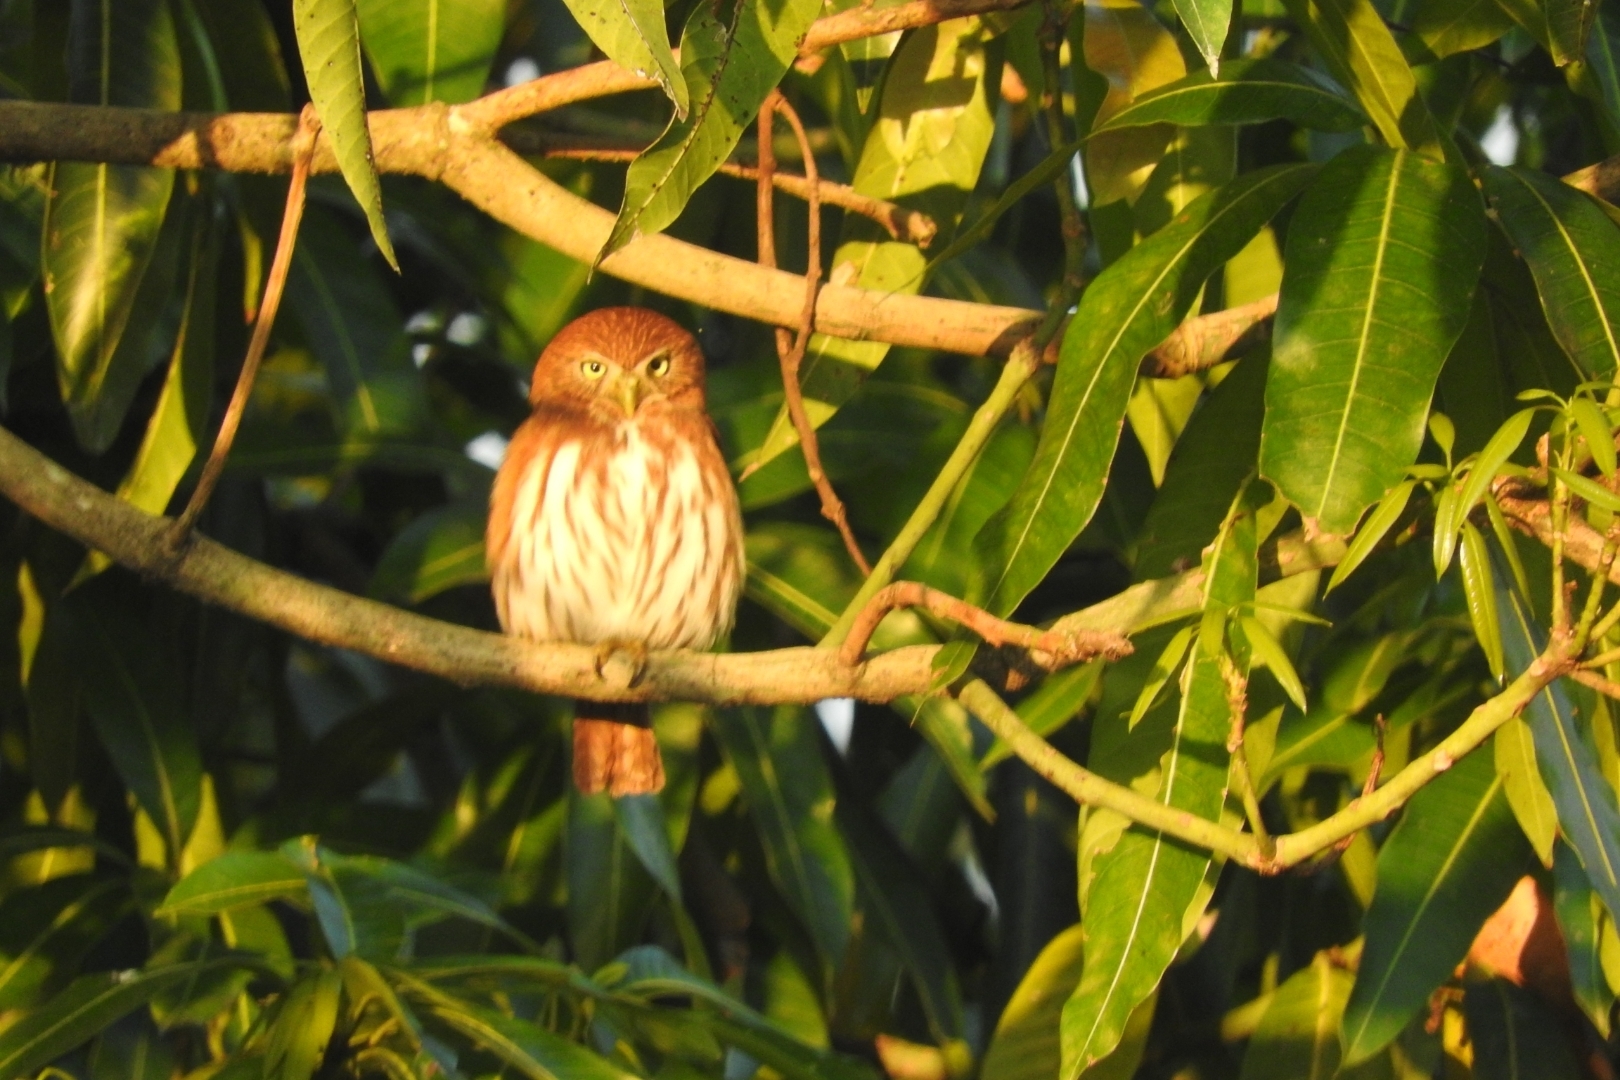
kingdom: Animalia
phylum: Chordata
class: Aves
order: Strigiformes
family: Strigidae
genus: Glaucidium
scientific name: Glaucidium brasilianum
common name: Ferruginous pygmy-owl
